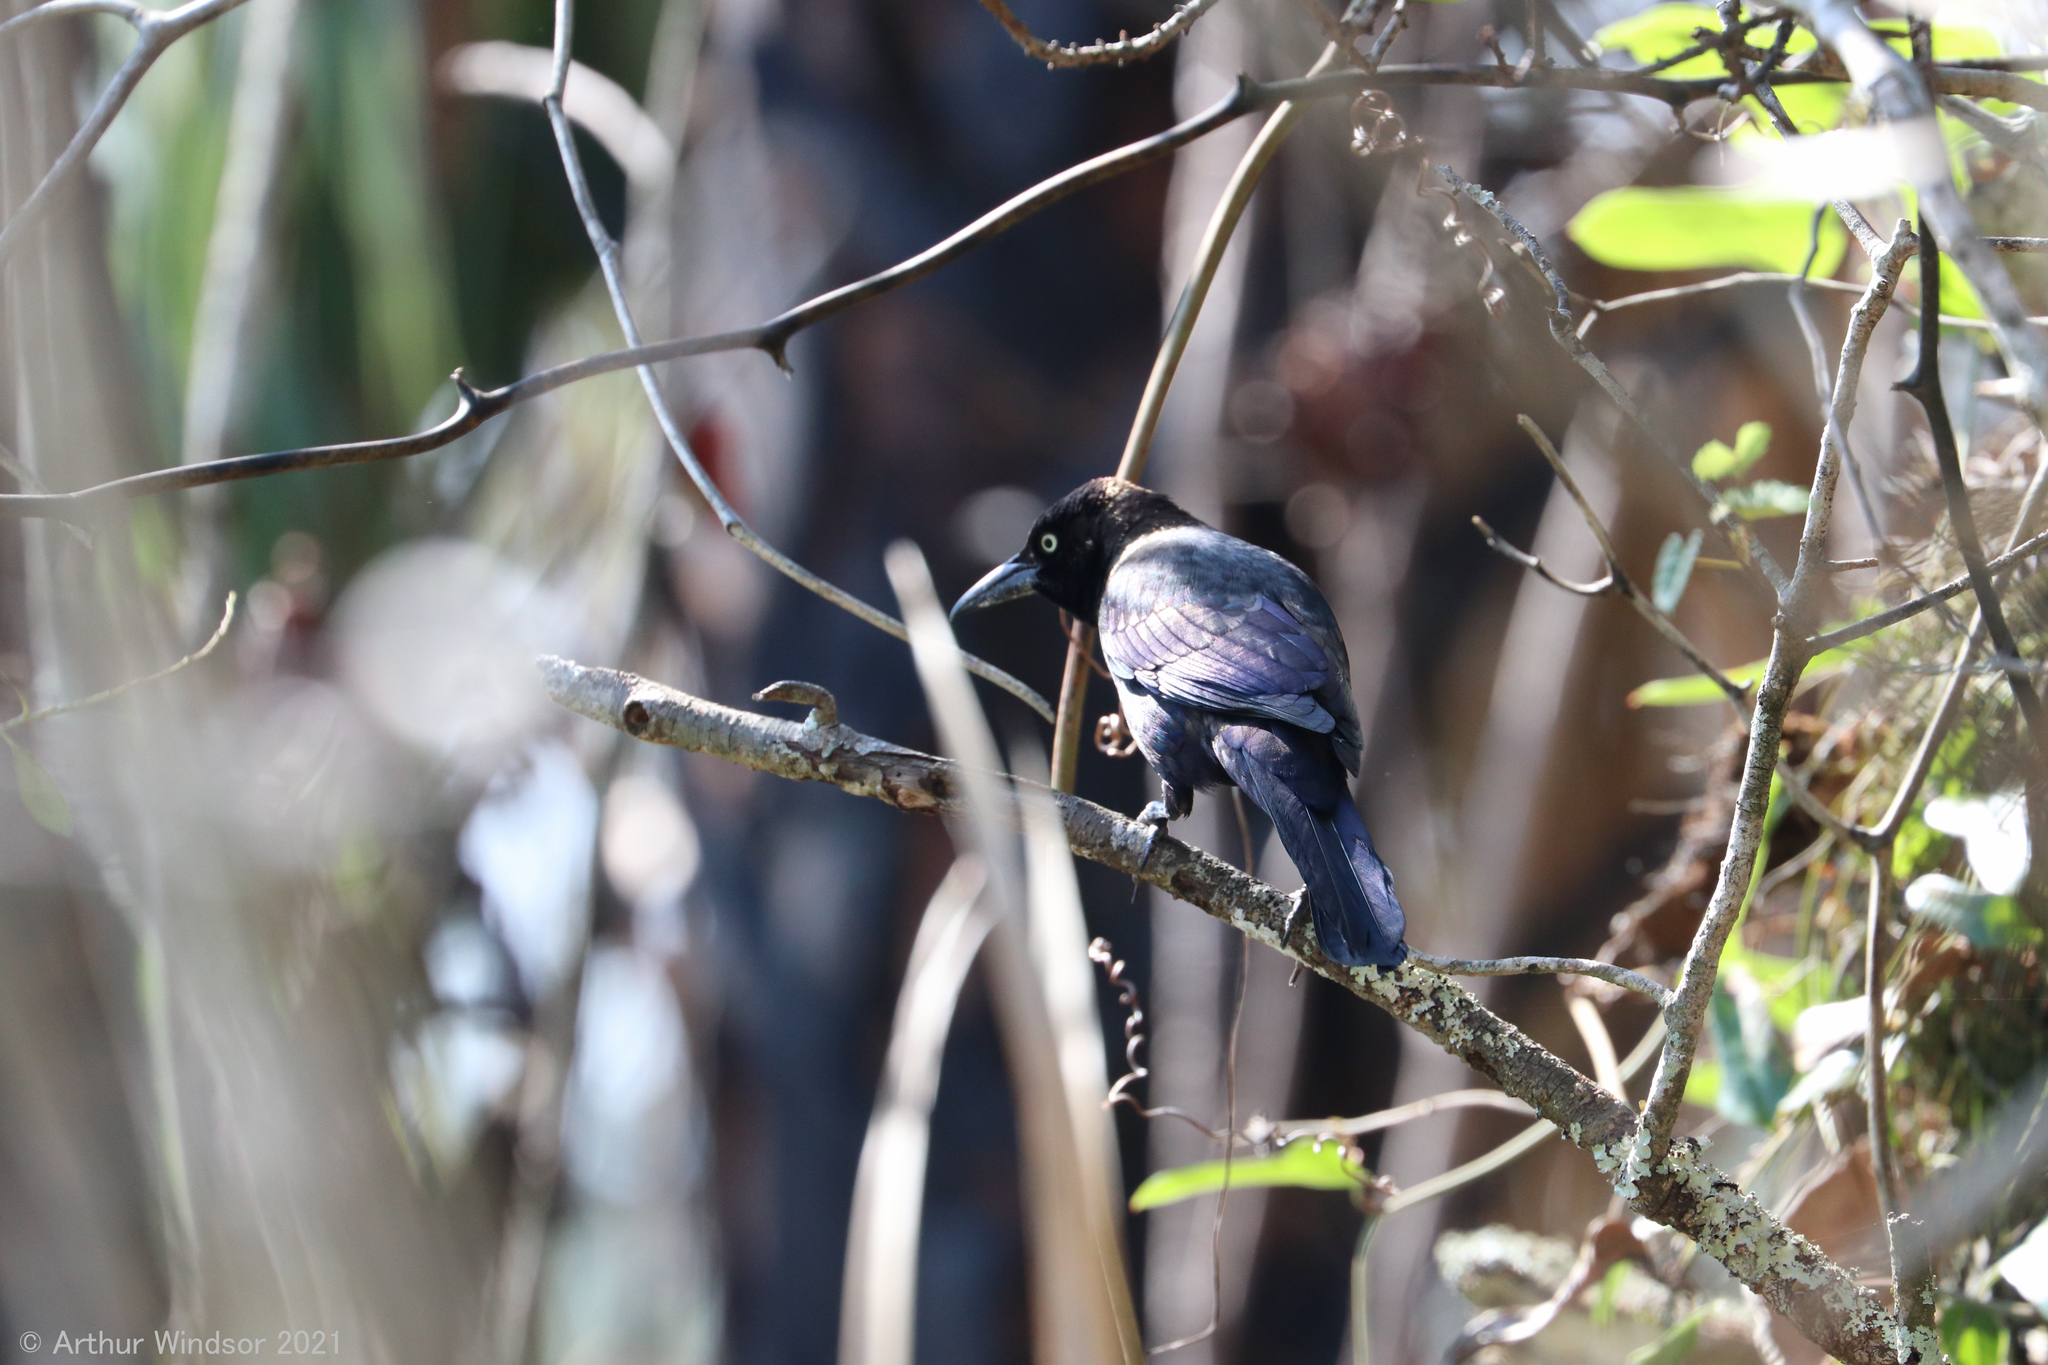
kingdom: Animalia
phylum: Chordata
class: Aves
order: Passeriformes
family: Icteridae
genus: Quiscalus
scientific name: Quiscalus quiscula
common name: Common grackle
